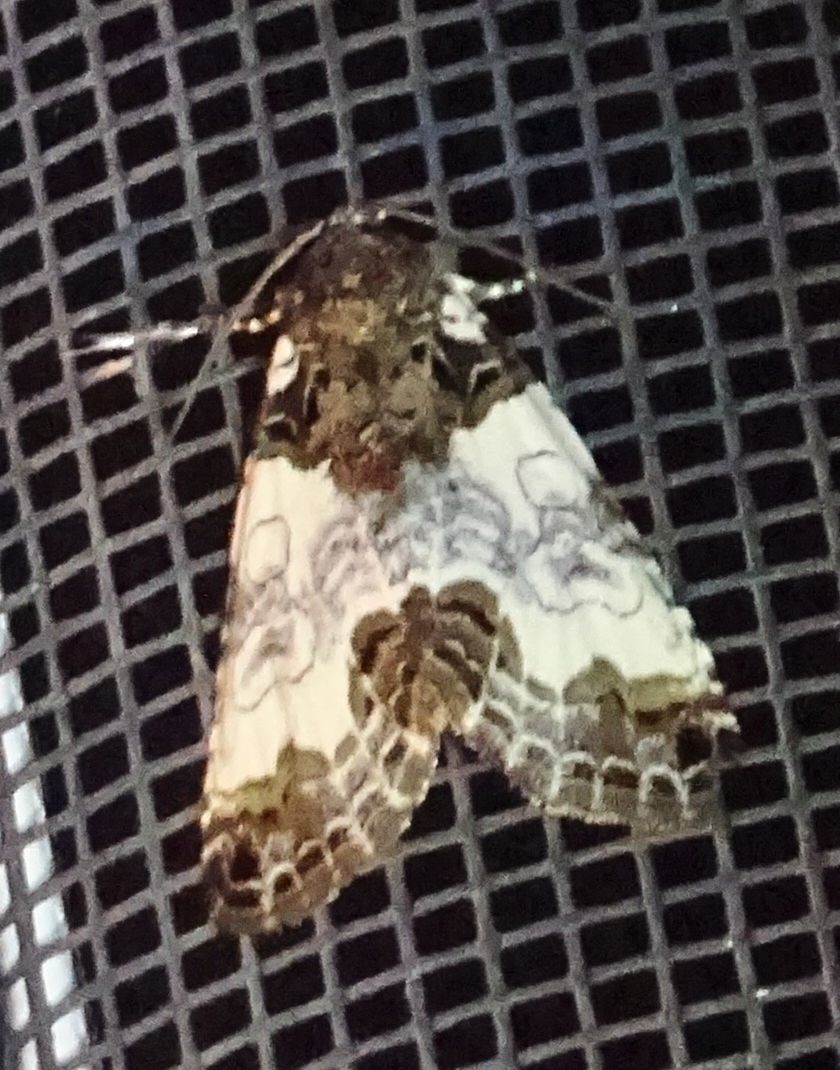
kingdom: Animalia
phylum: Arthropoda
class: Insecta
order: Lepidoptera
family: Noctuidae
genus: Cerma
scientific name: Cerma cerintha
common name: Tufted bird-dropping moth
